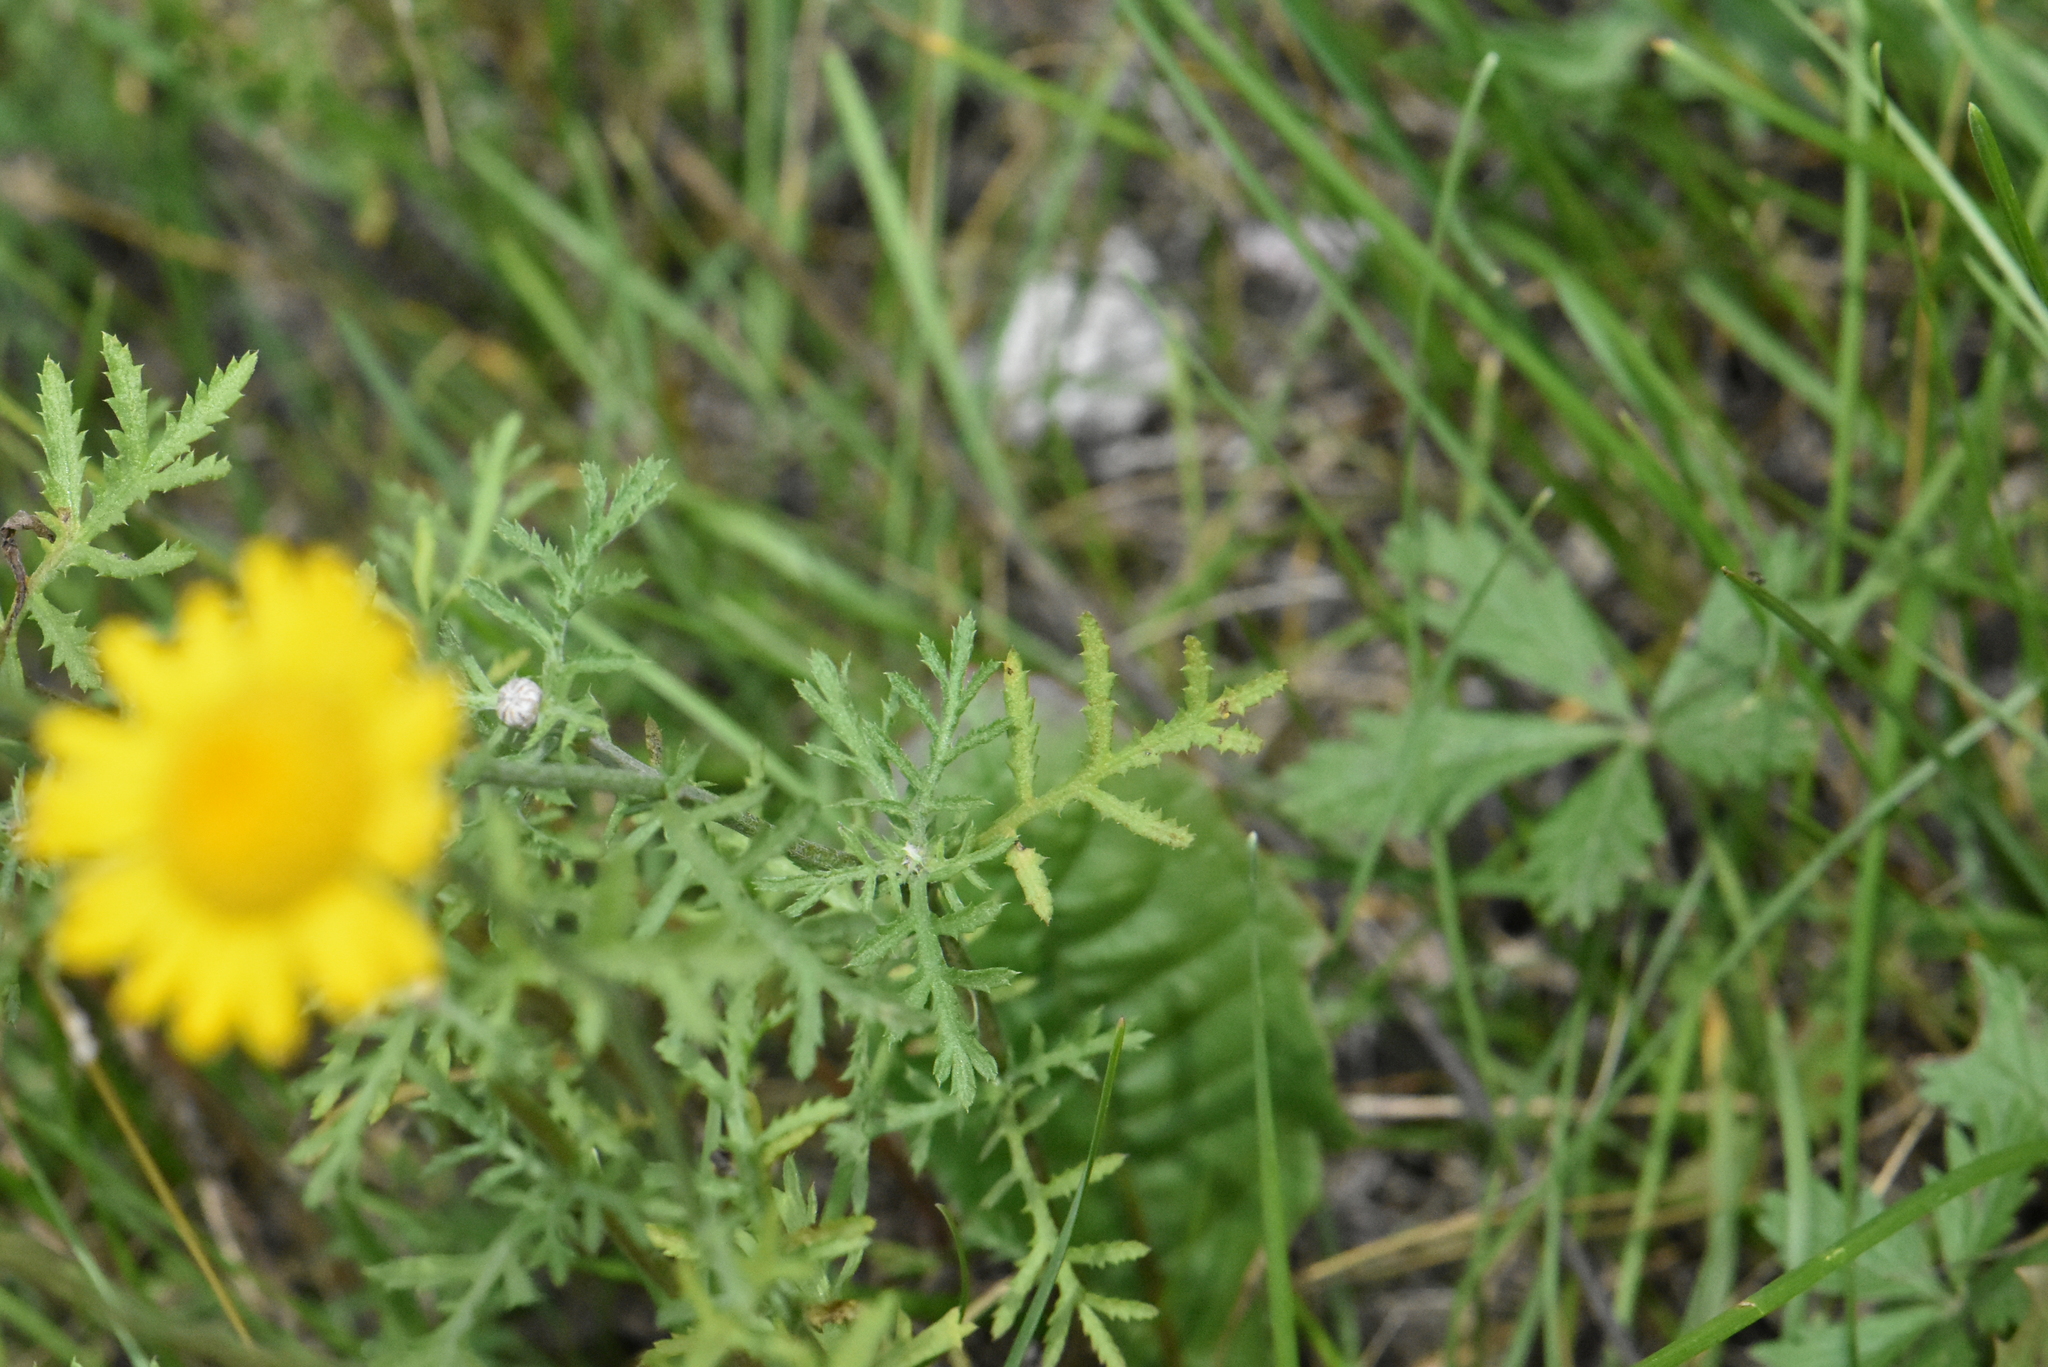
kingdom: Plantae
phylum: Tracheophyta
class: Magnoliopsida
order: Asterales
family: Asteraceae
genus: Cota
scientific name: Cota tinctoria
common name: Golden chamomile
